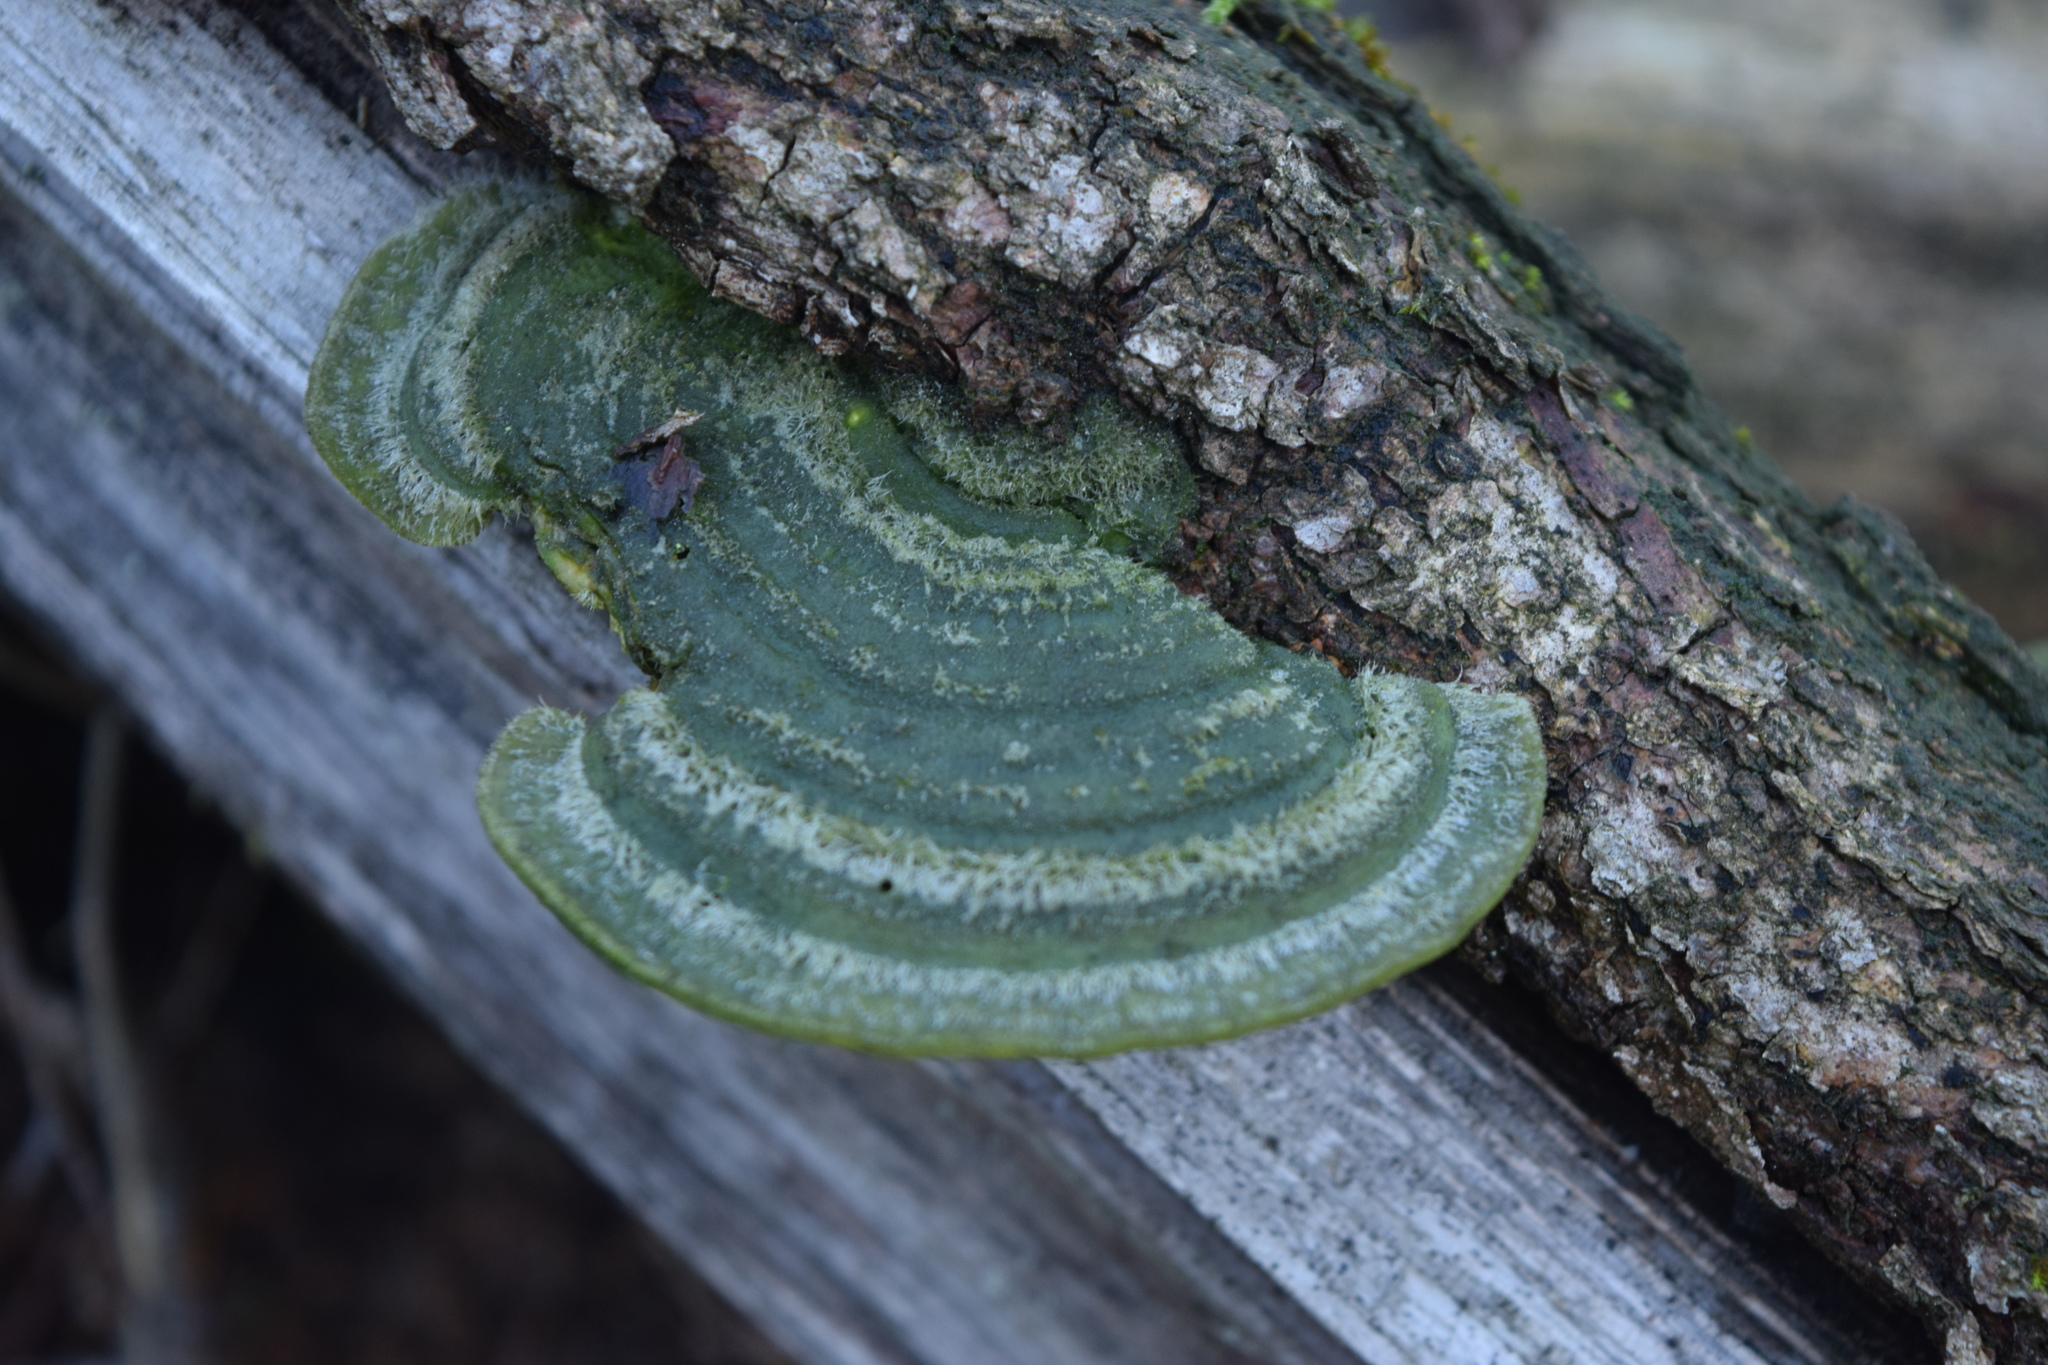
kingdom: Fungi
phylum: Basidiomycota
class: Agaricomycetes
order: Polyporales
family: Polyporaceae
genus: Trametes
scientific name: Trametes gibbosa
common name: Lumpy bracket
